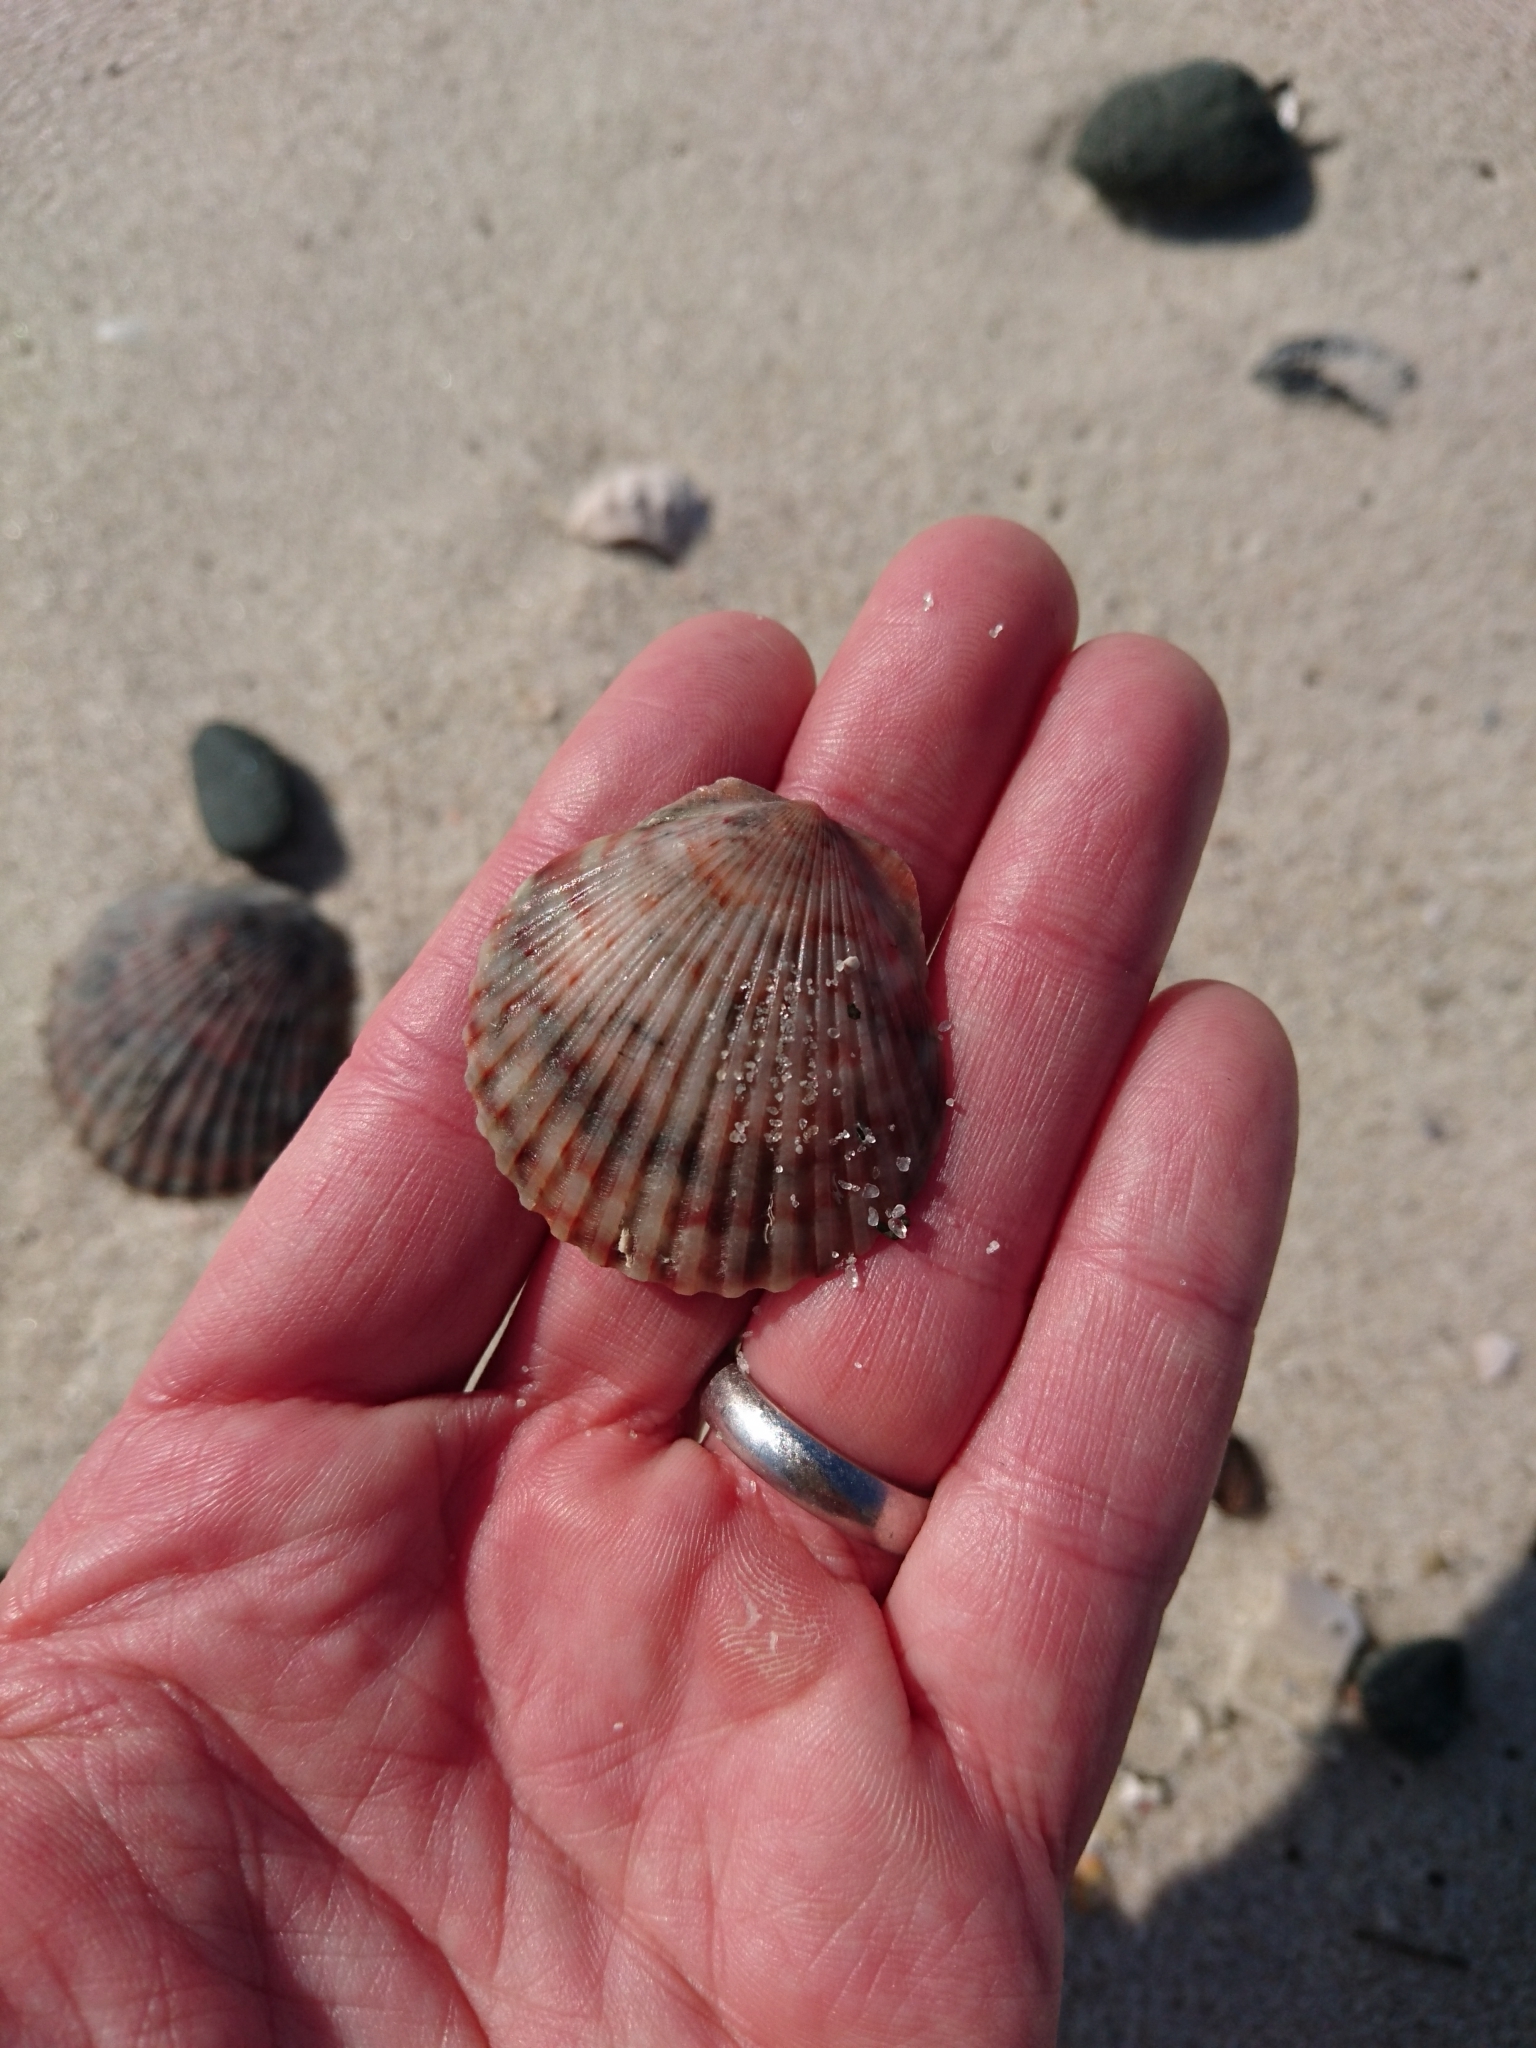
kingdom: Animalia
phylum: Mollusca
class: Bivalvia
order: Pectinida
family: Pectinidae
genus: Argopecten
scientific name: Argopecten irradians
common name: Atlantic bay scallop
